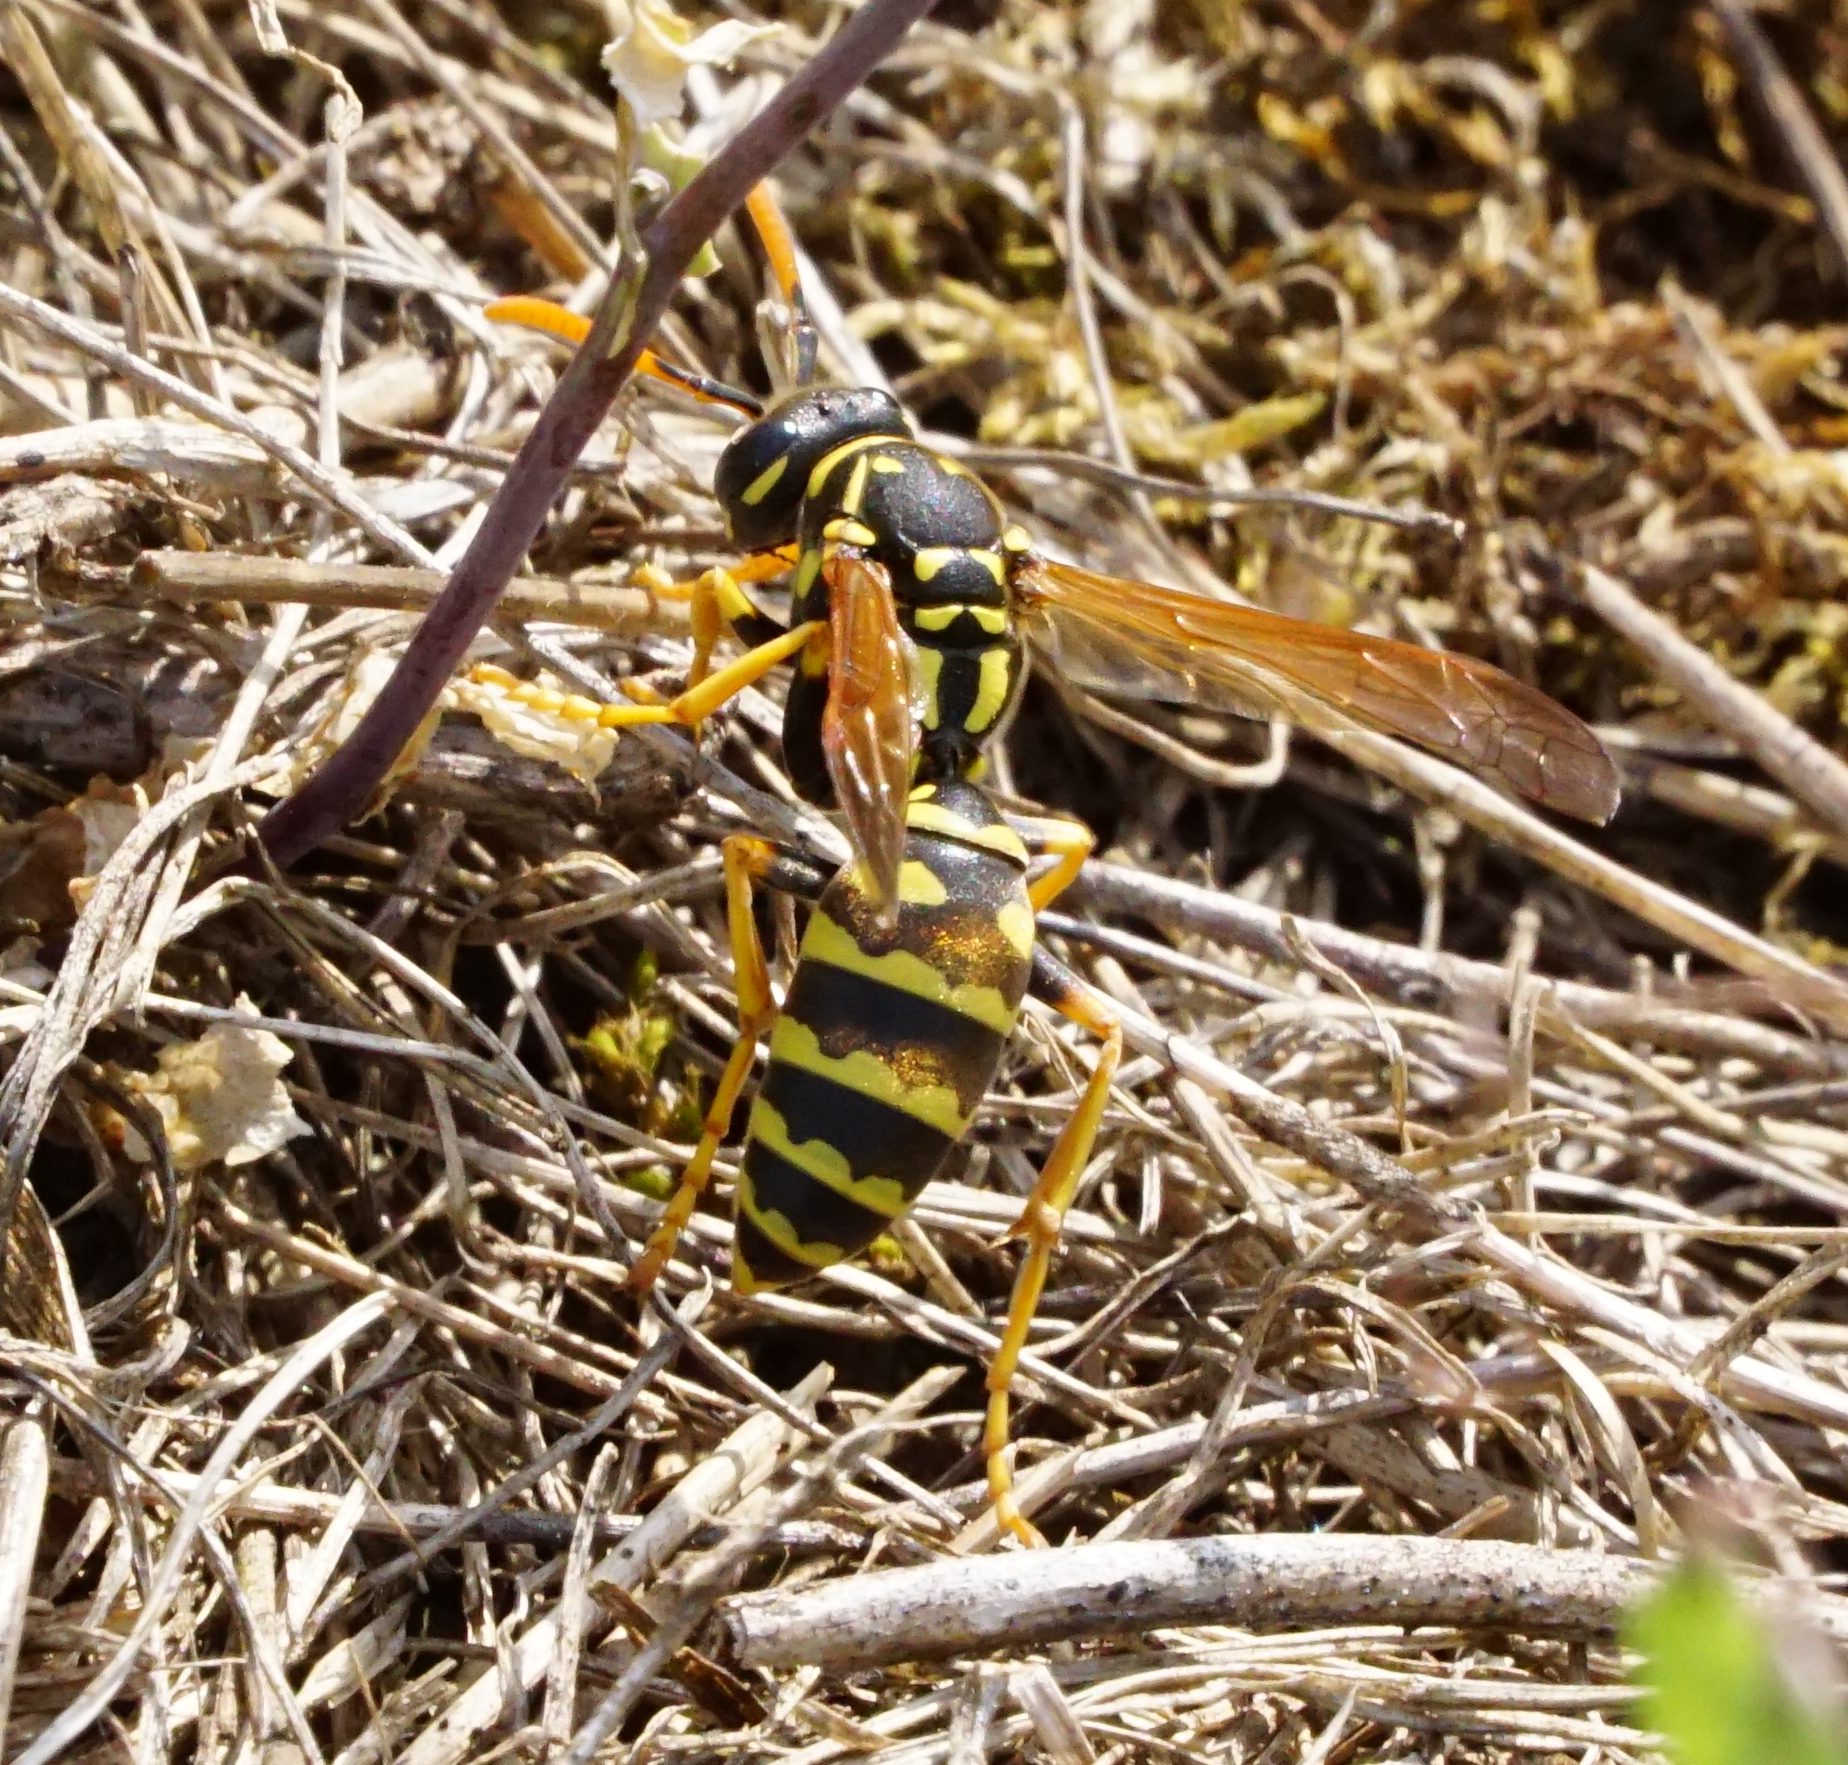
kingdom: Animalia
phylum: Arthropoda
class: Insecta
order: Hymenoptera
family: Eumenidae
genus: Polistes
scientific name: Polistes dominula
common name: Paper wasp
